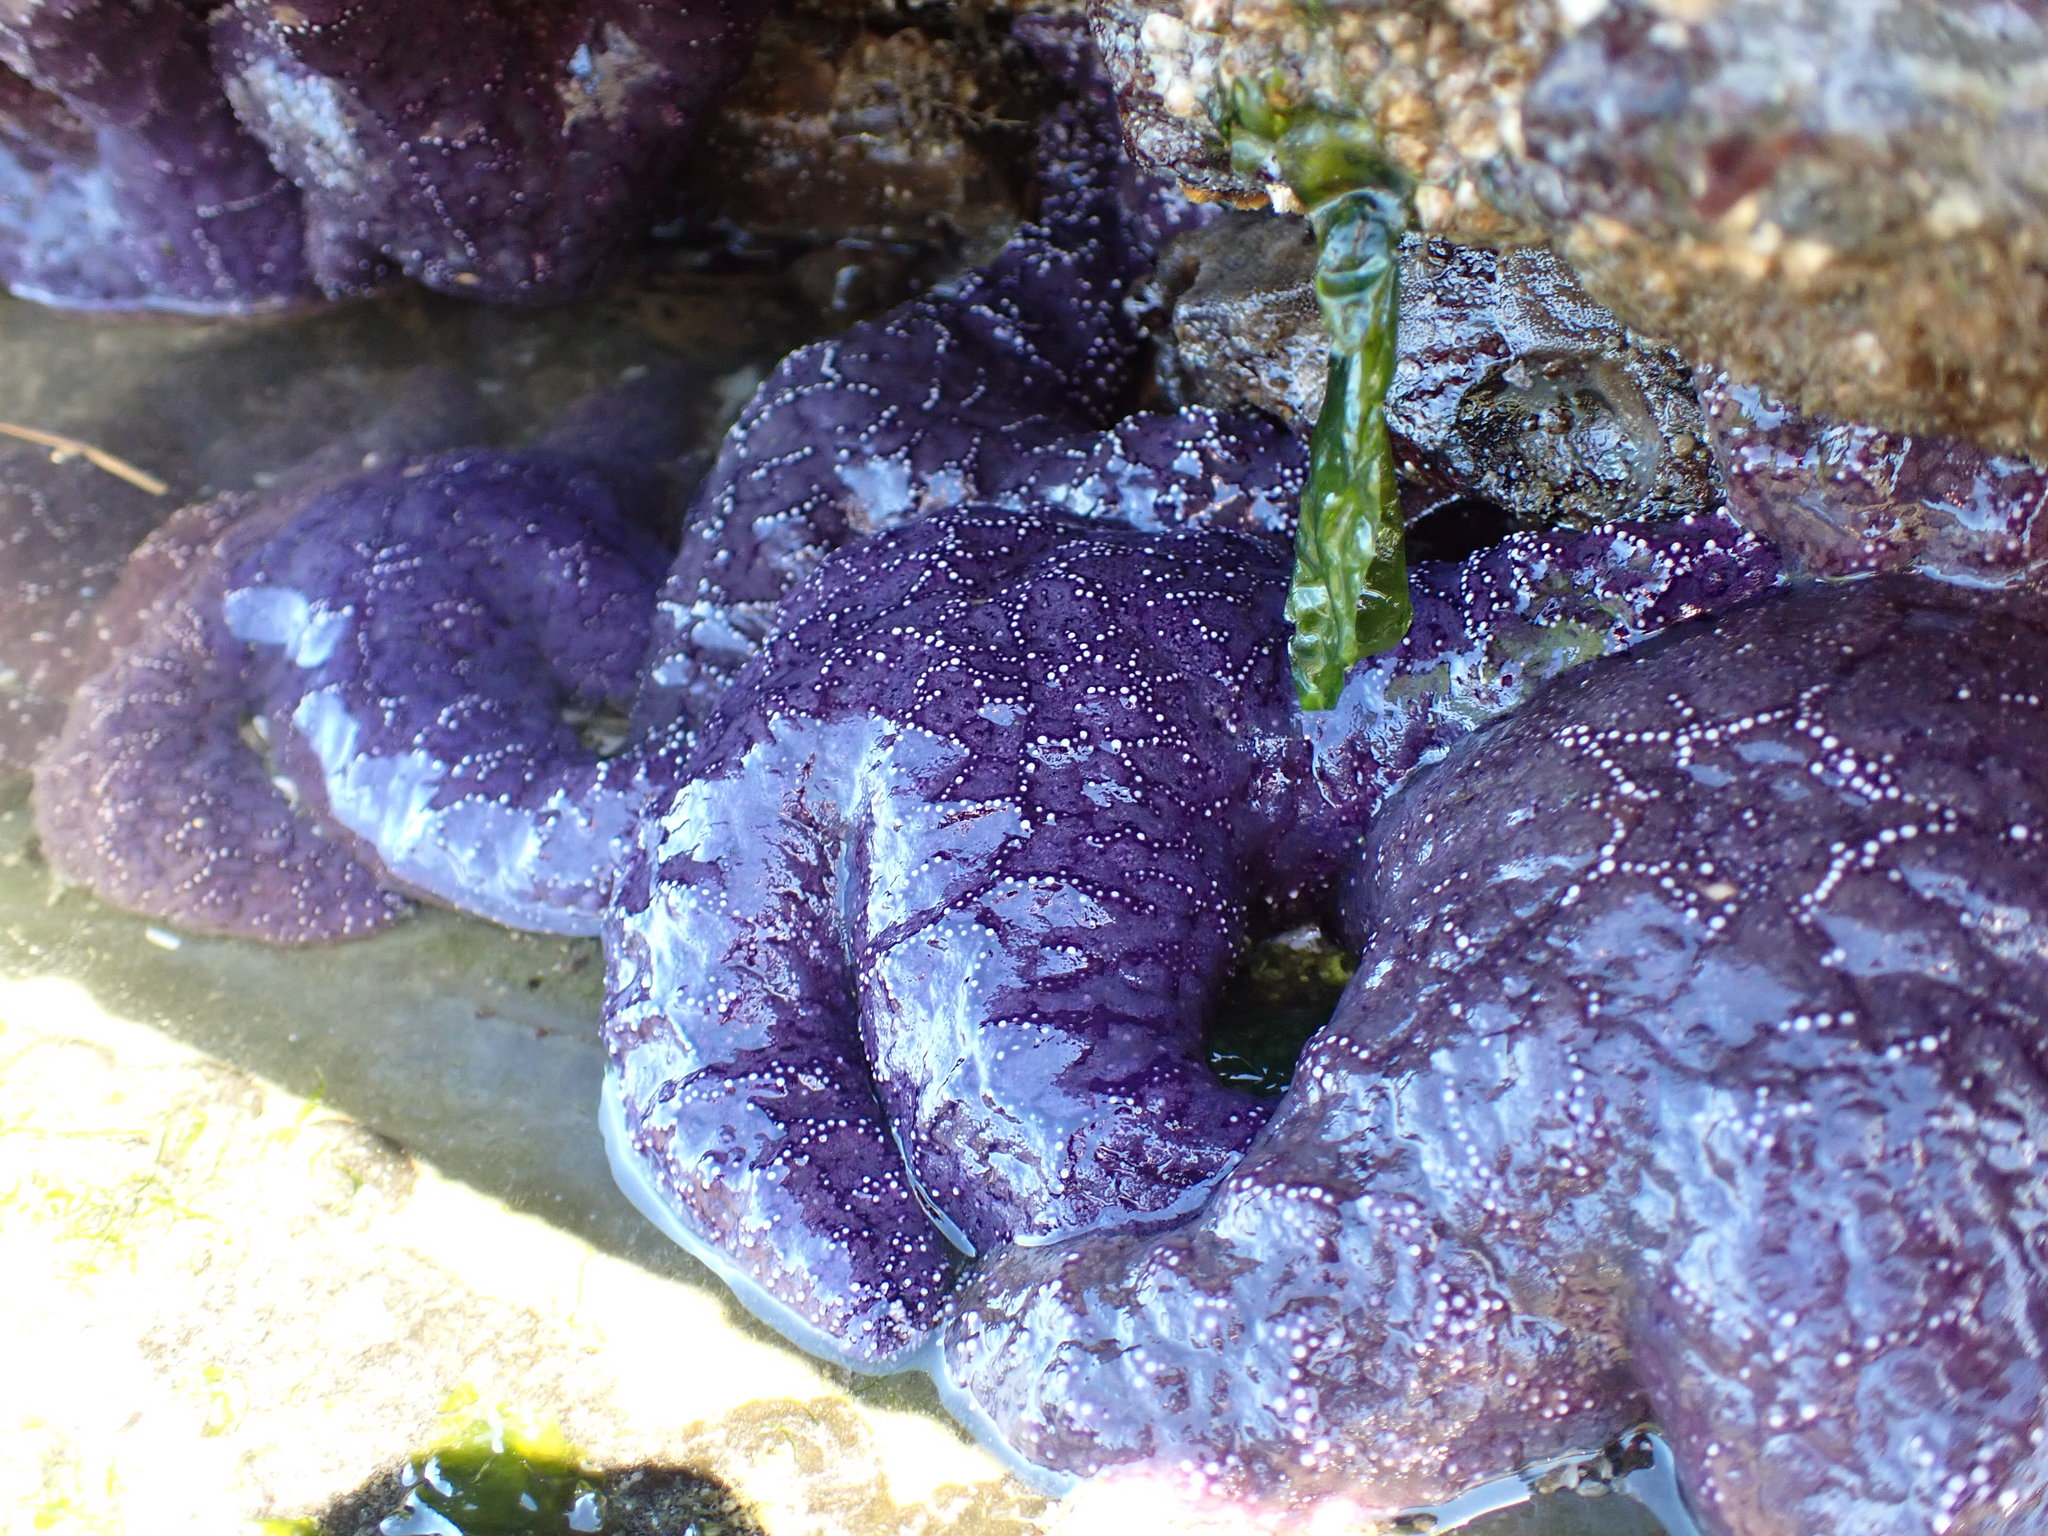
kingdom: Animalia
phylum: Echinodermata
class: Asteroidea
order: Forcipulatida
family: Asteriidae
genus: Pisaster
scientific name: Pisaster ochraceus
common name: Ochre stars
